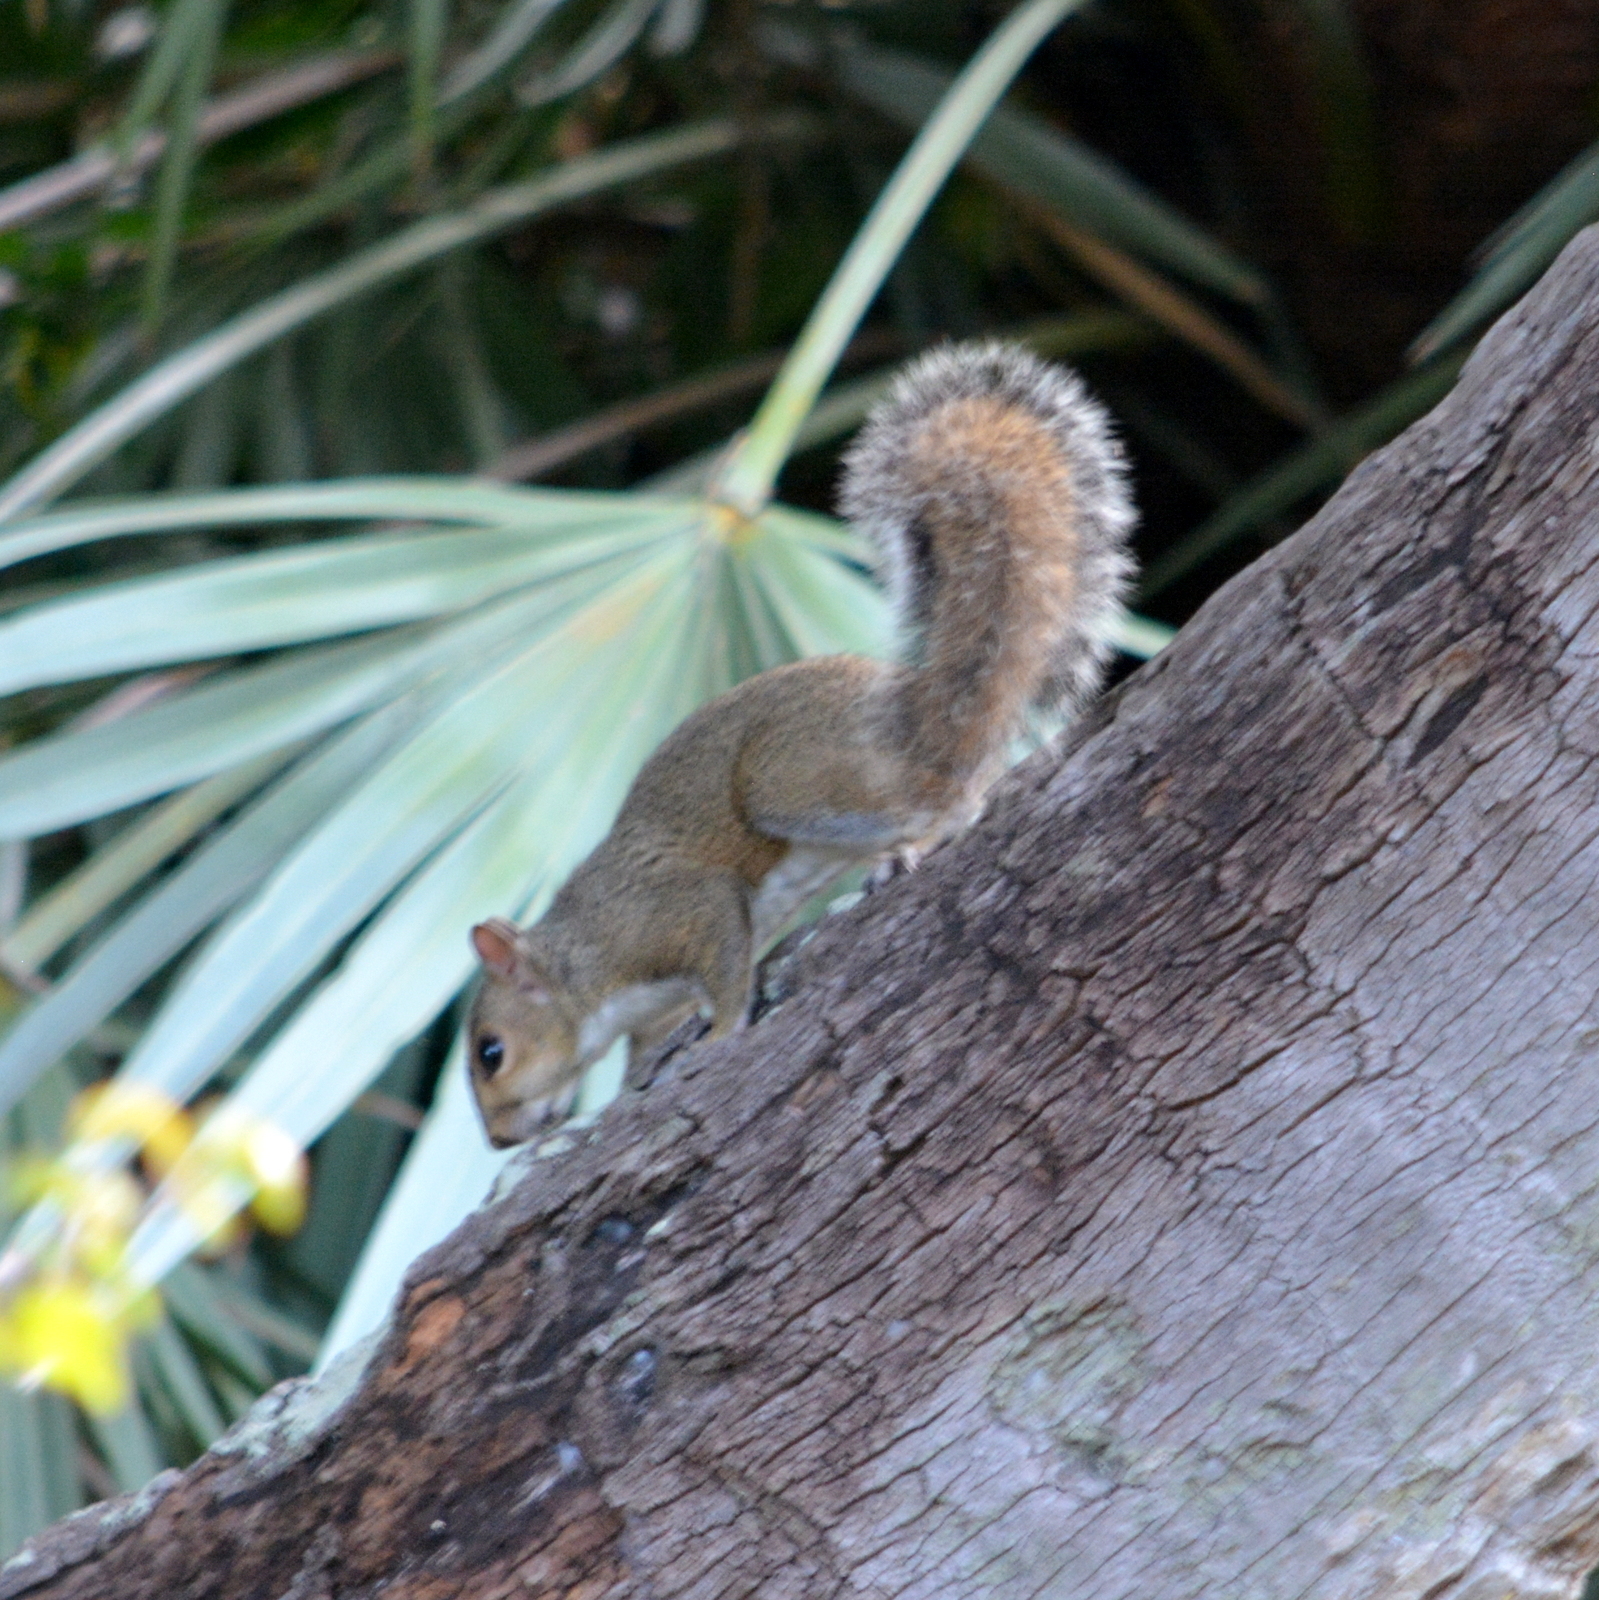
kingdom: Animalia
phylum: Chordata
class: Mammalia
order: Rodentia
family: Sciuridae
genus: Sciurus
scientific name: Sciurus carolinensis
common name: Eastern gray squirrel
